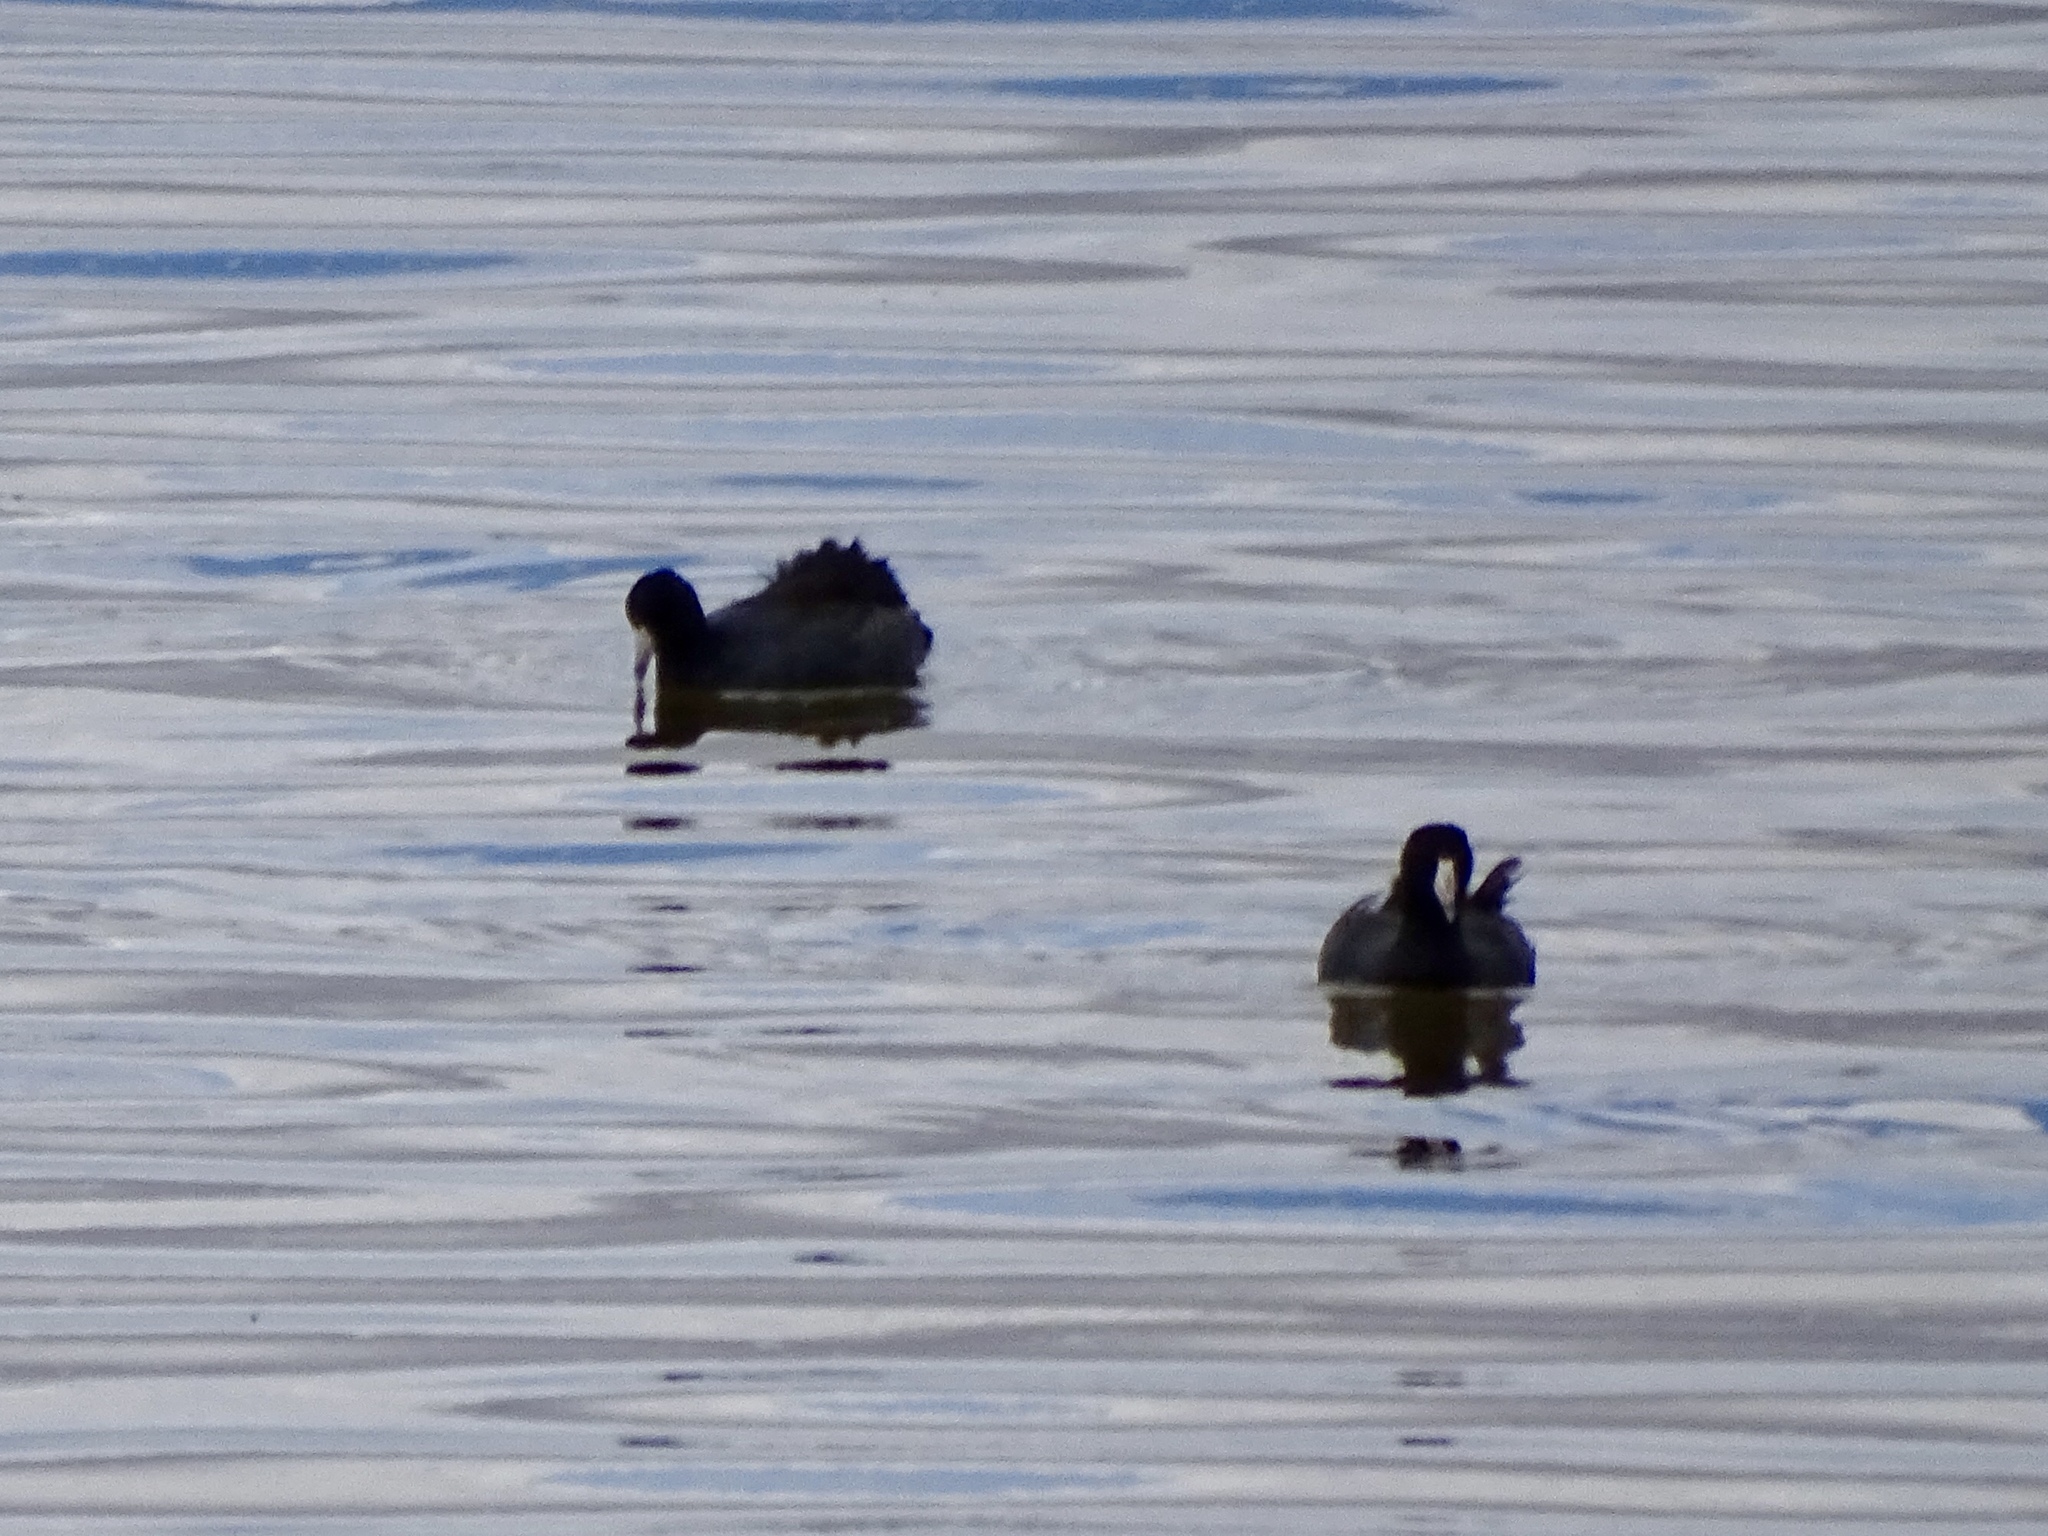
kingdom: Animalia
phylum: Chordata
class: Aves
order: Gruiformes
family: Rallidae
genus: Fulica
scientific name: Fulica americana
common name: American coot
